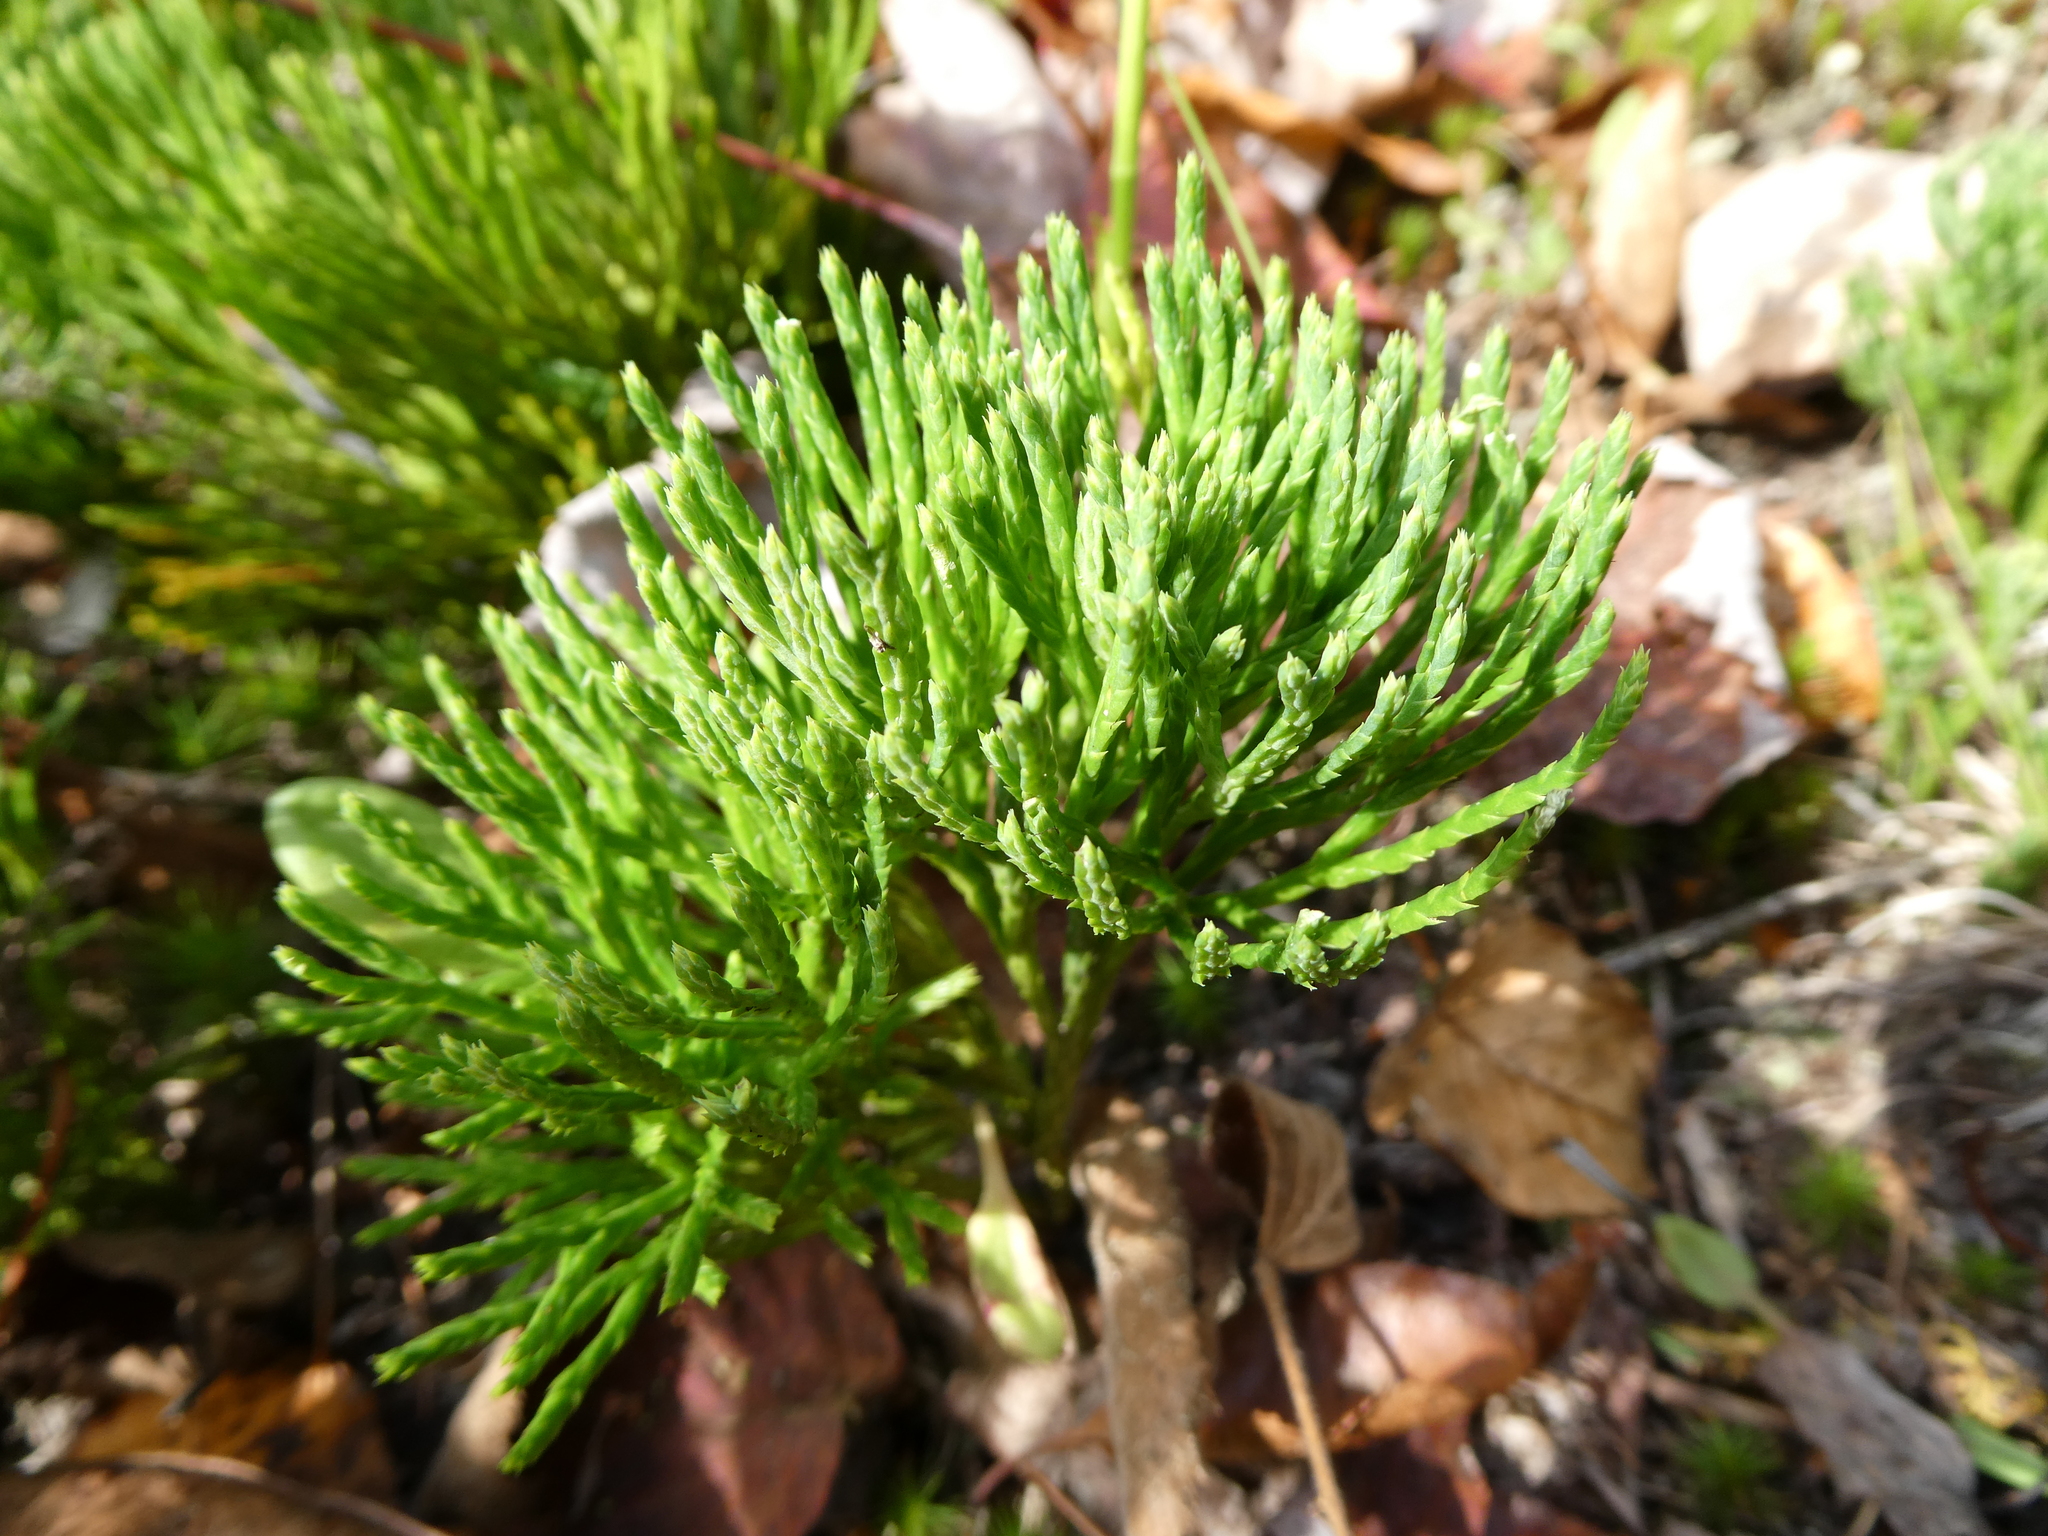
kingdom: Plantae
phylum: Tracheophyta
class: Lycopodiopsida
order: Lycopodiales
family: Lycopodiaceae
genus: Diphasiastrum
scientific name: Diphasiastrum tristachyum
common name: Blue ground-cedar
